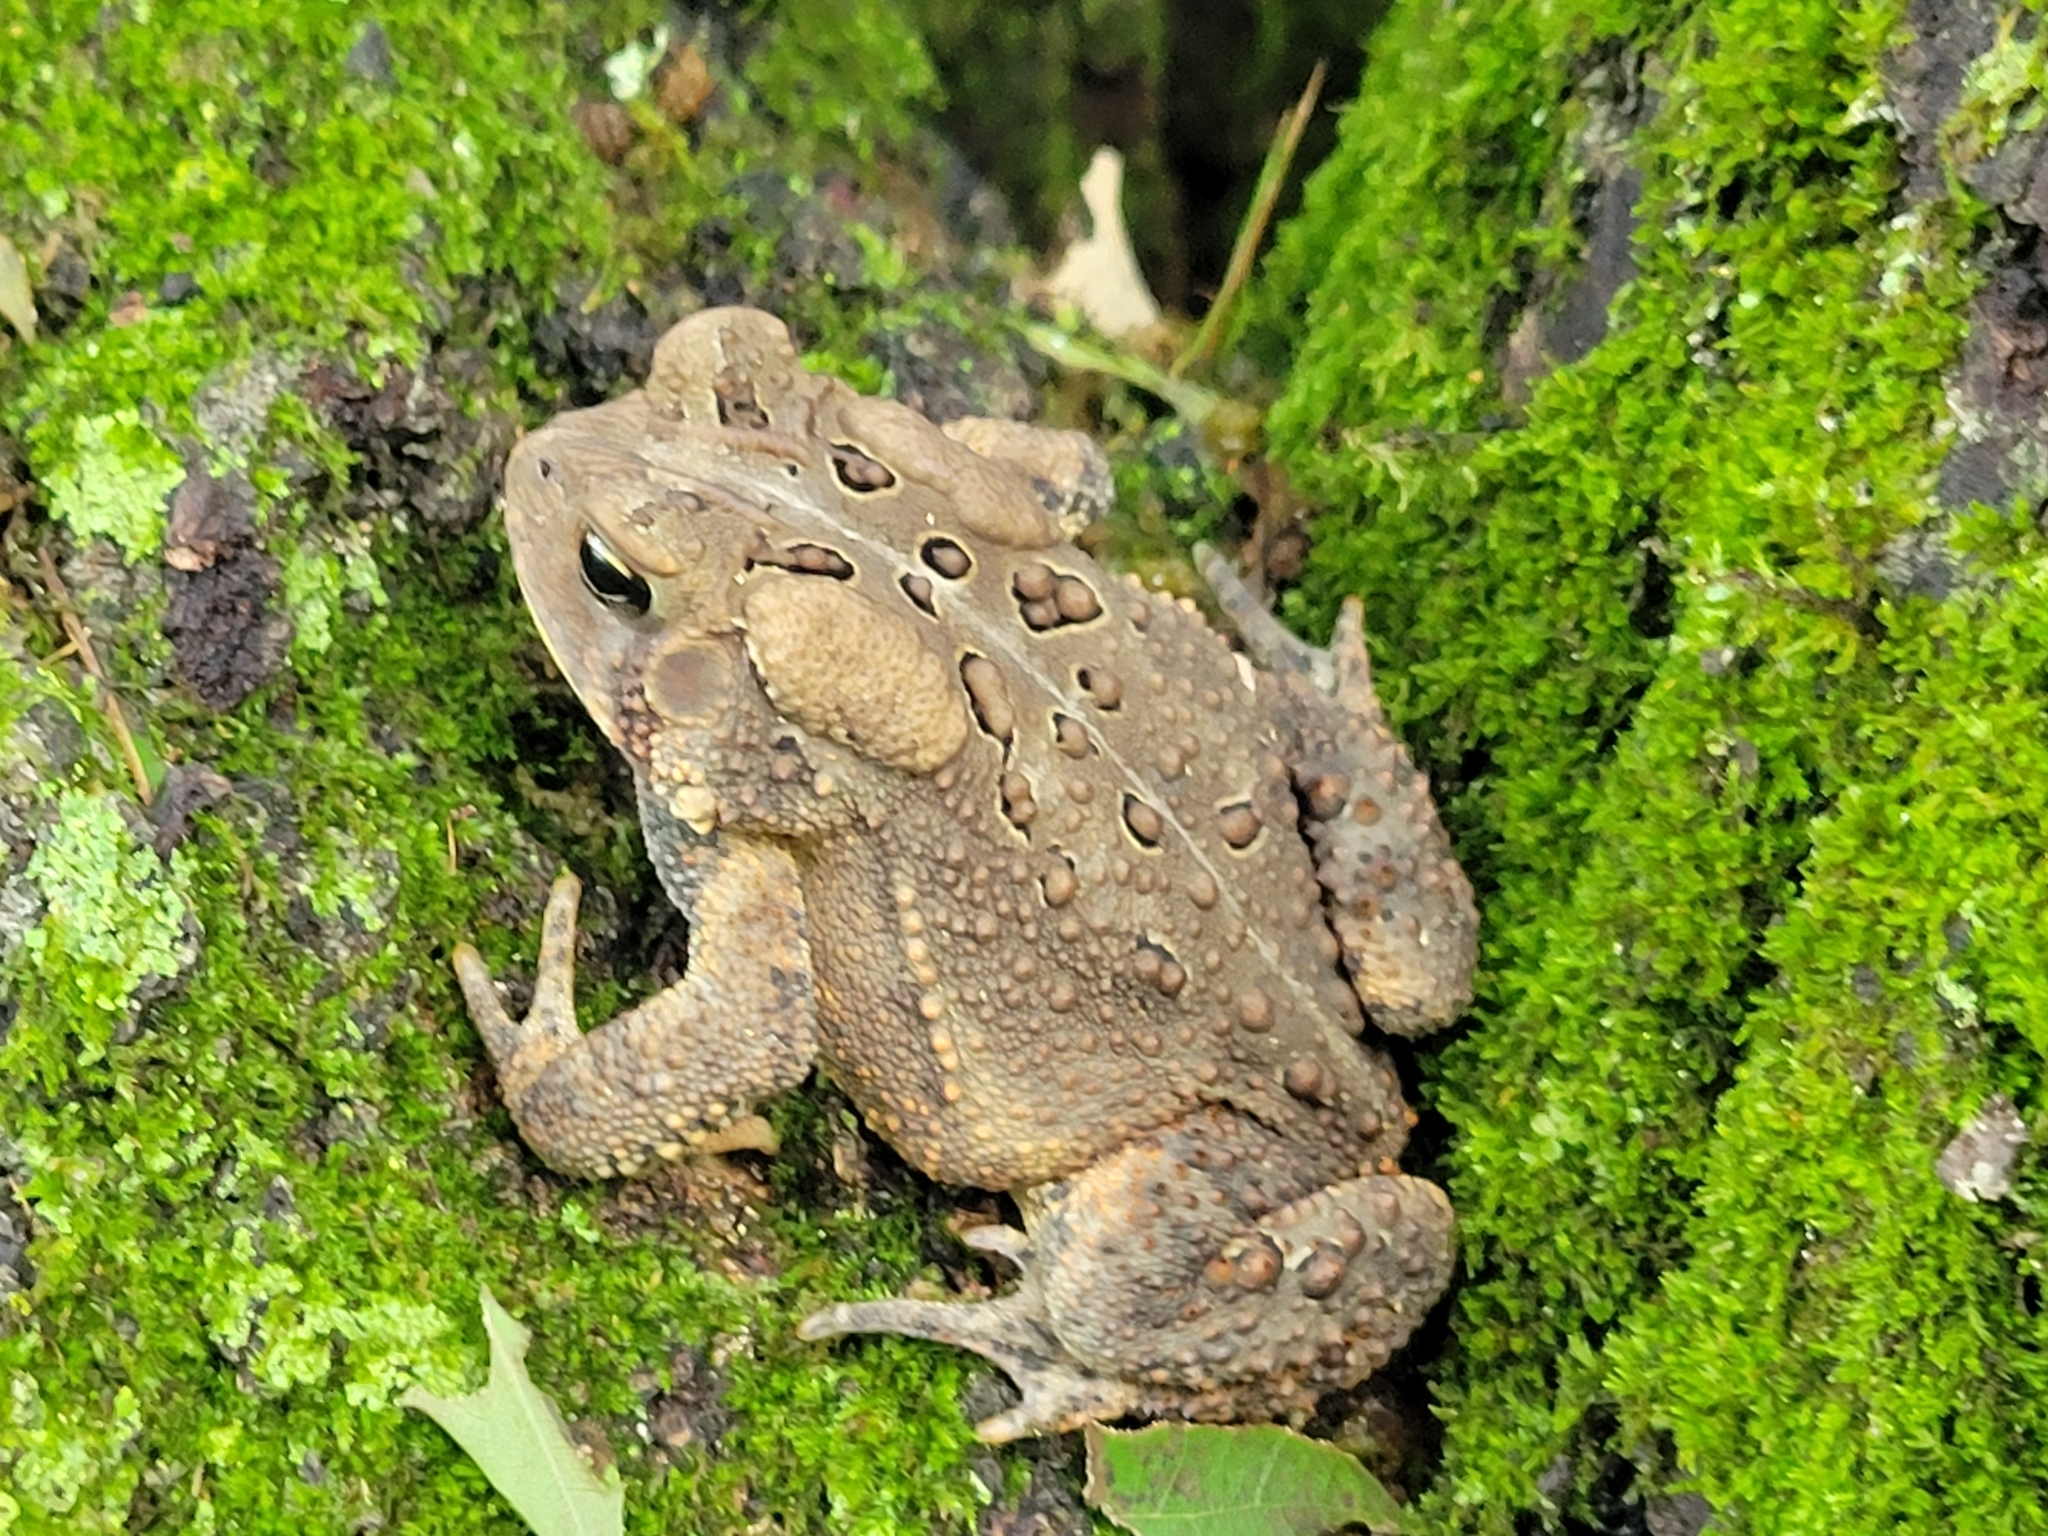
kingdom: Animalia
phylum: Chordata
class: Amphibia
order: Anura
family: Bufonidae
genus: Anaxyrus
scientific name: Anaxyrus americanus
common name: American toad
